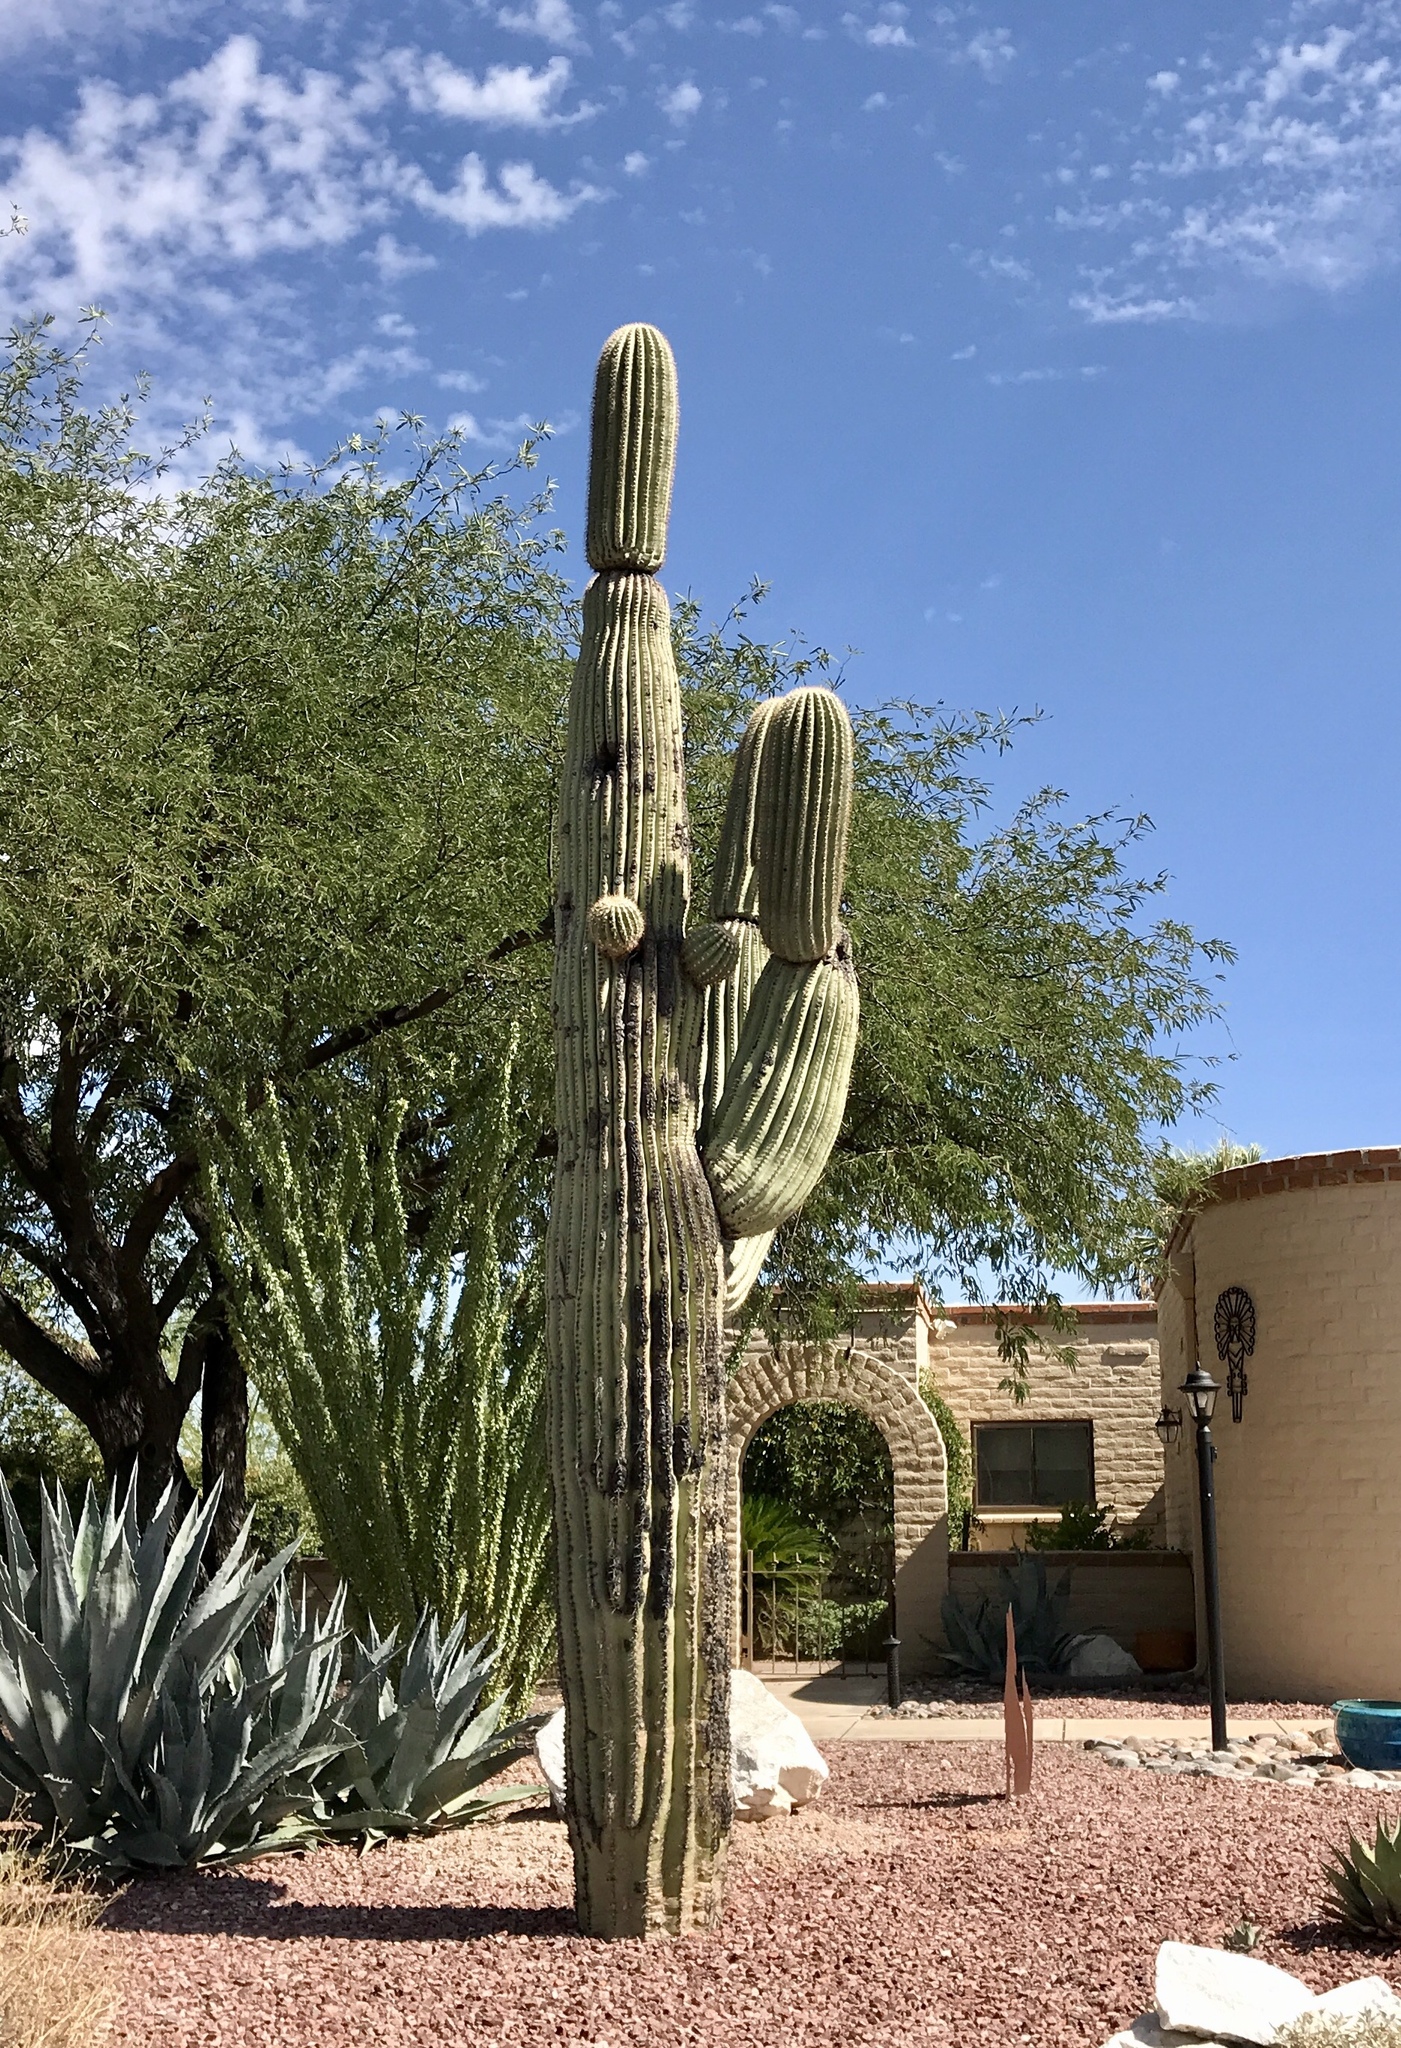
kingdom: Plantae
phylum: Tracheophyta
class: Magnoliopsida
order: Caryophyllales
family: Cactaceae
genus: Carnegiea
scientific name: Carnegiea gigantea
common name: Saguaro
